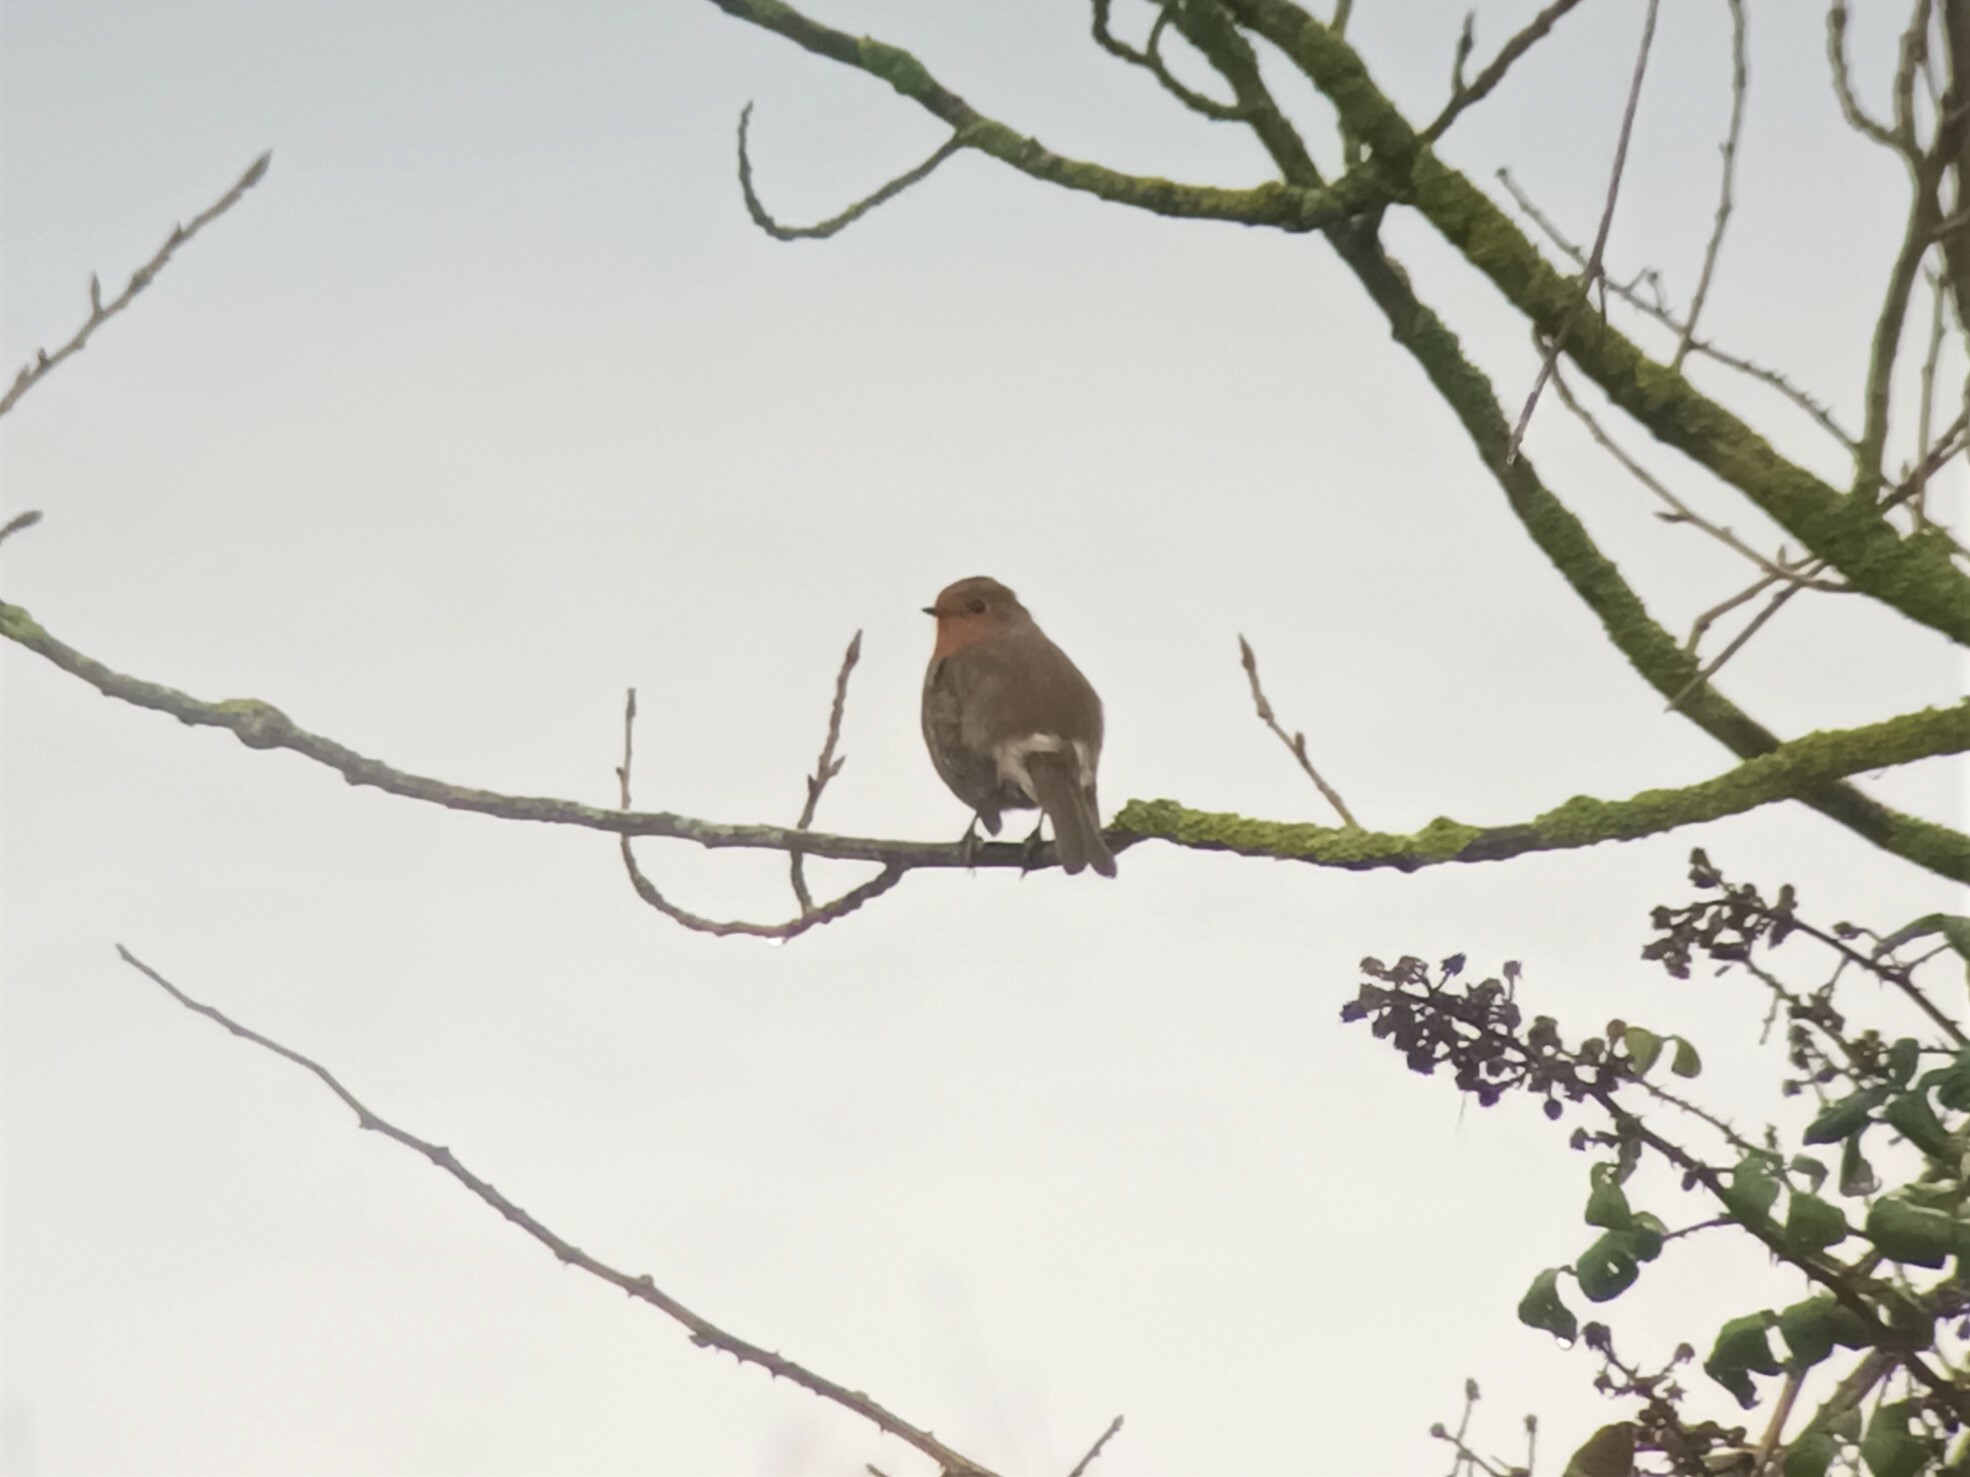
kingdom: Animalia
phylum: Chordata
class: Aves
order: Passeriformes
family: Muscicapidae
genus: Erithacus
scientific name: Erithacus rubecula
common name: European robin
